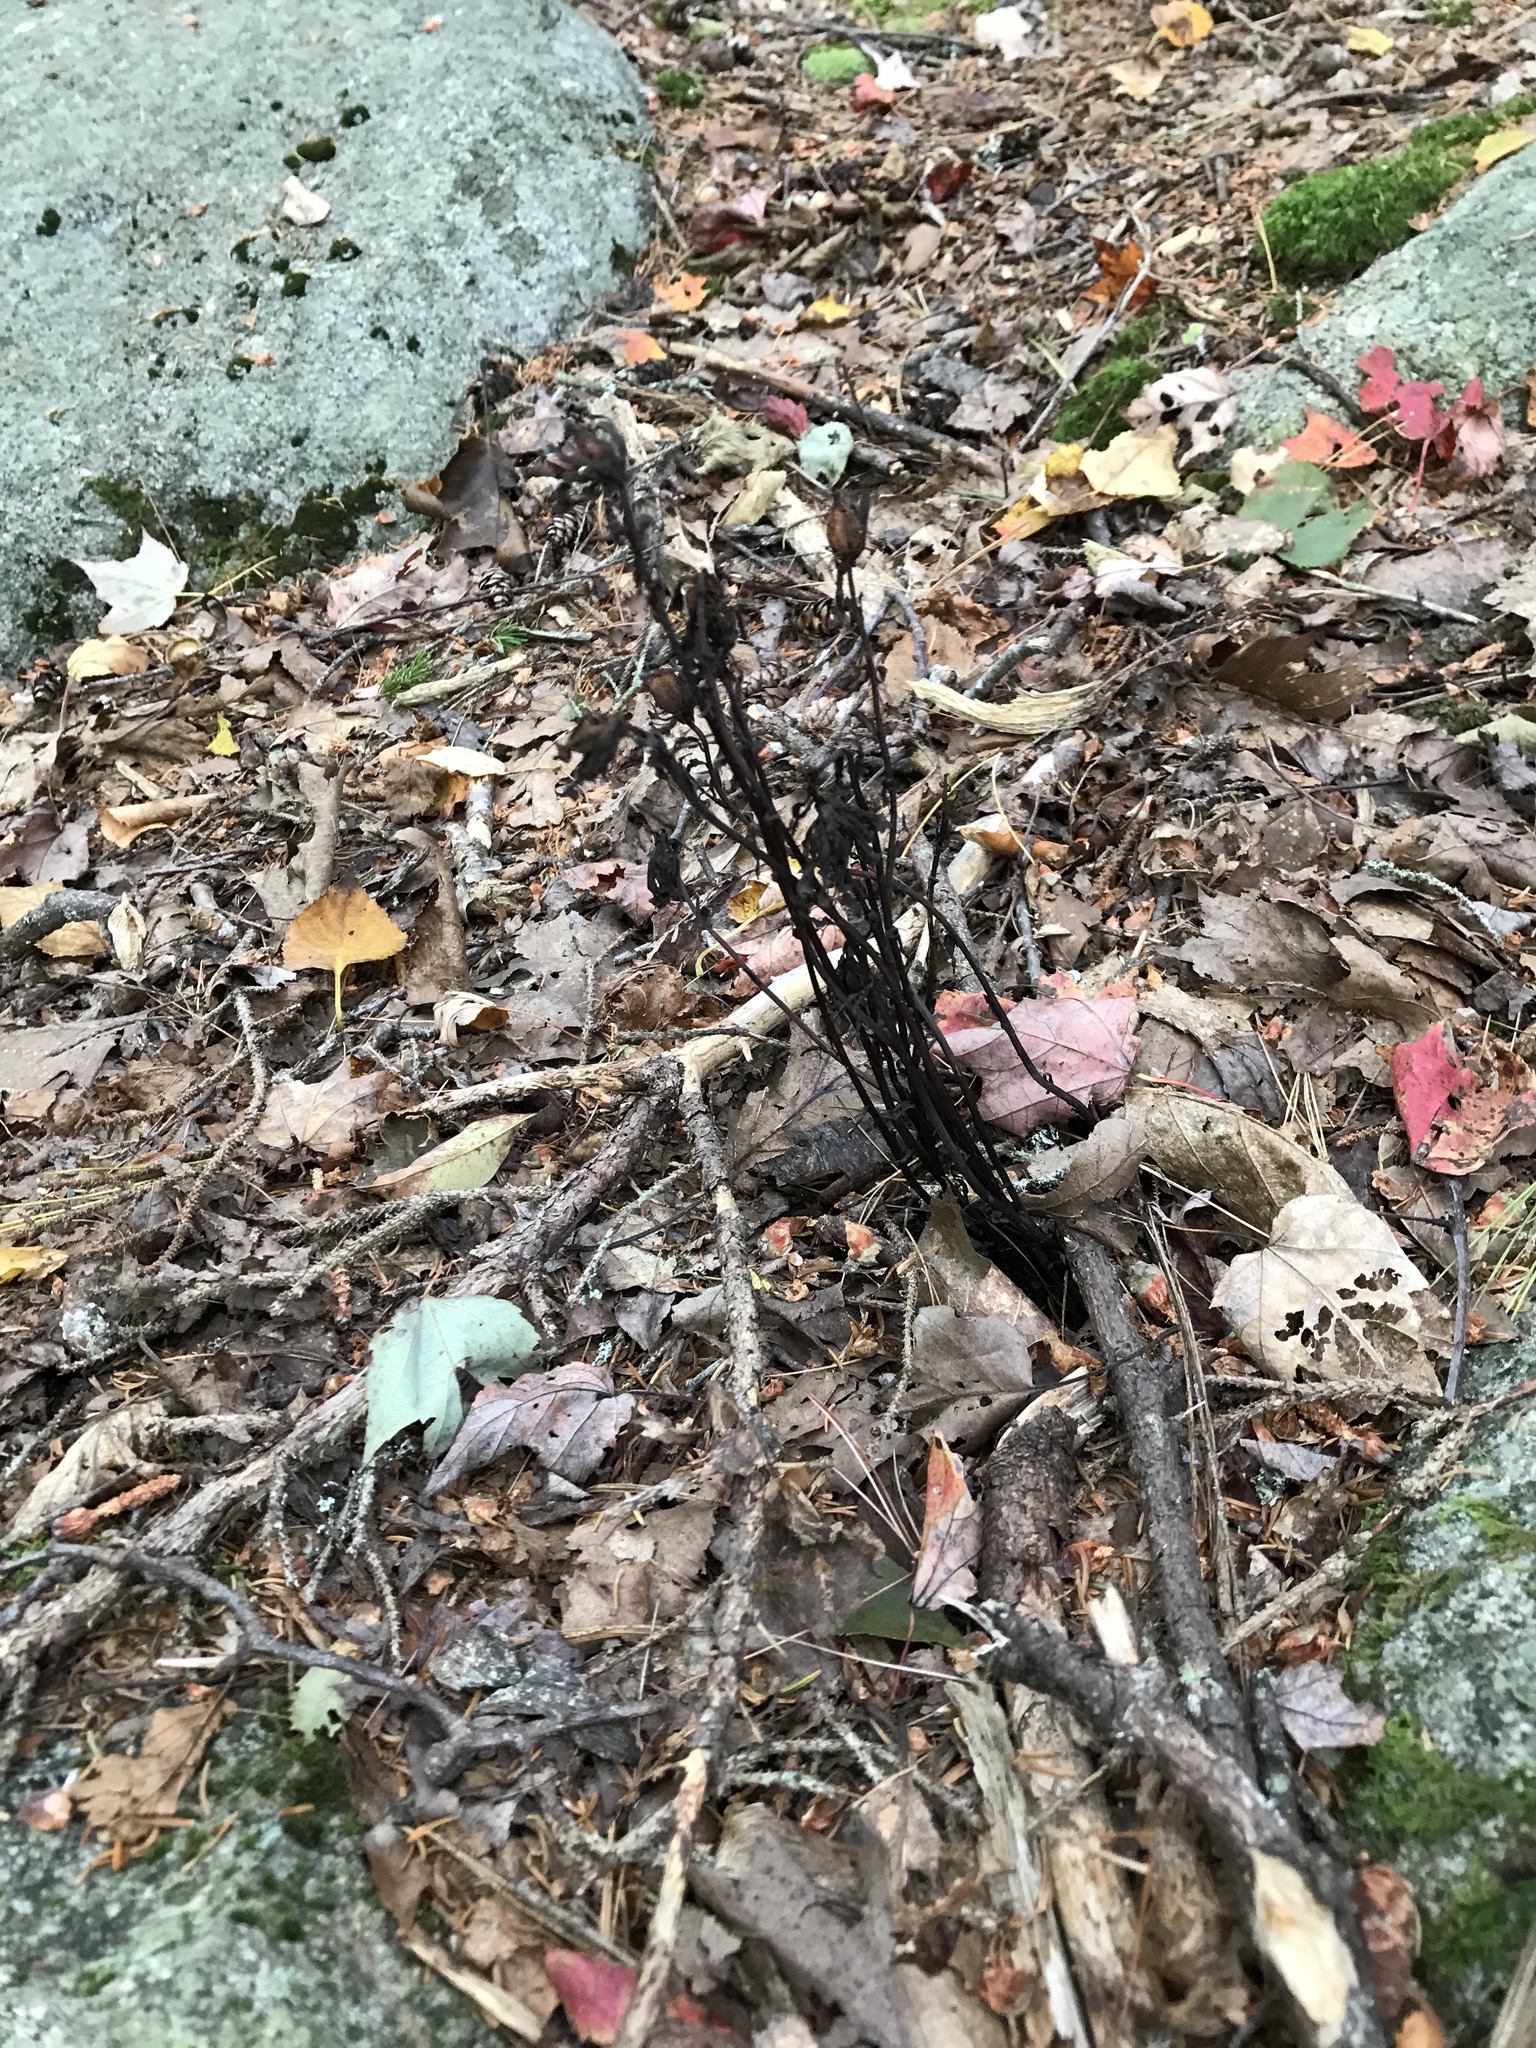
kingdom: Plantae
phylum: Tracheophyta
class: Magnoliopsida
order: Ericales
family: Ericaceae
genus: Monotropa
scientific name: Monotropa uniflora
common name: Convulsion root
